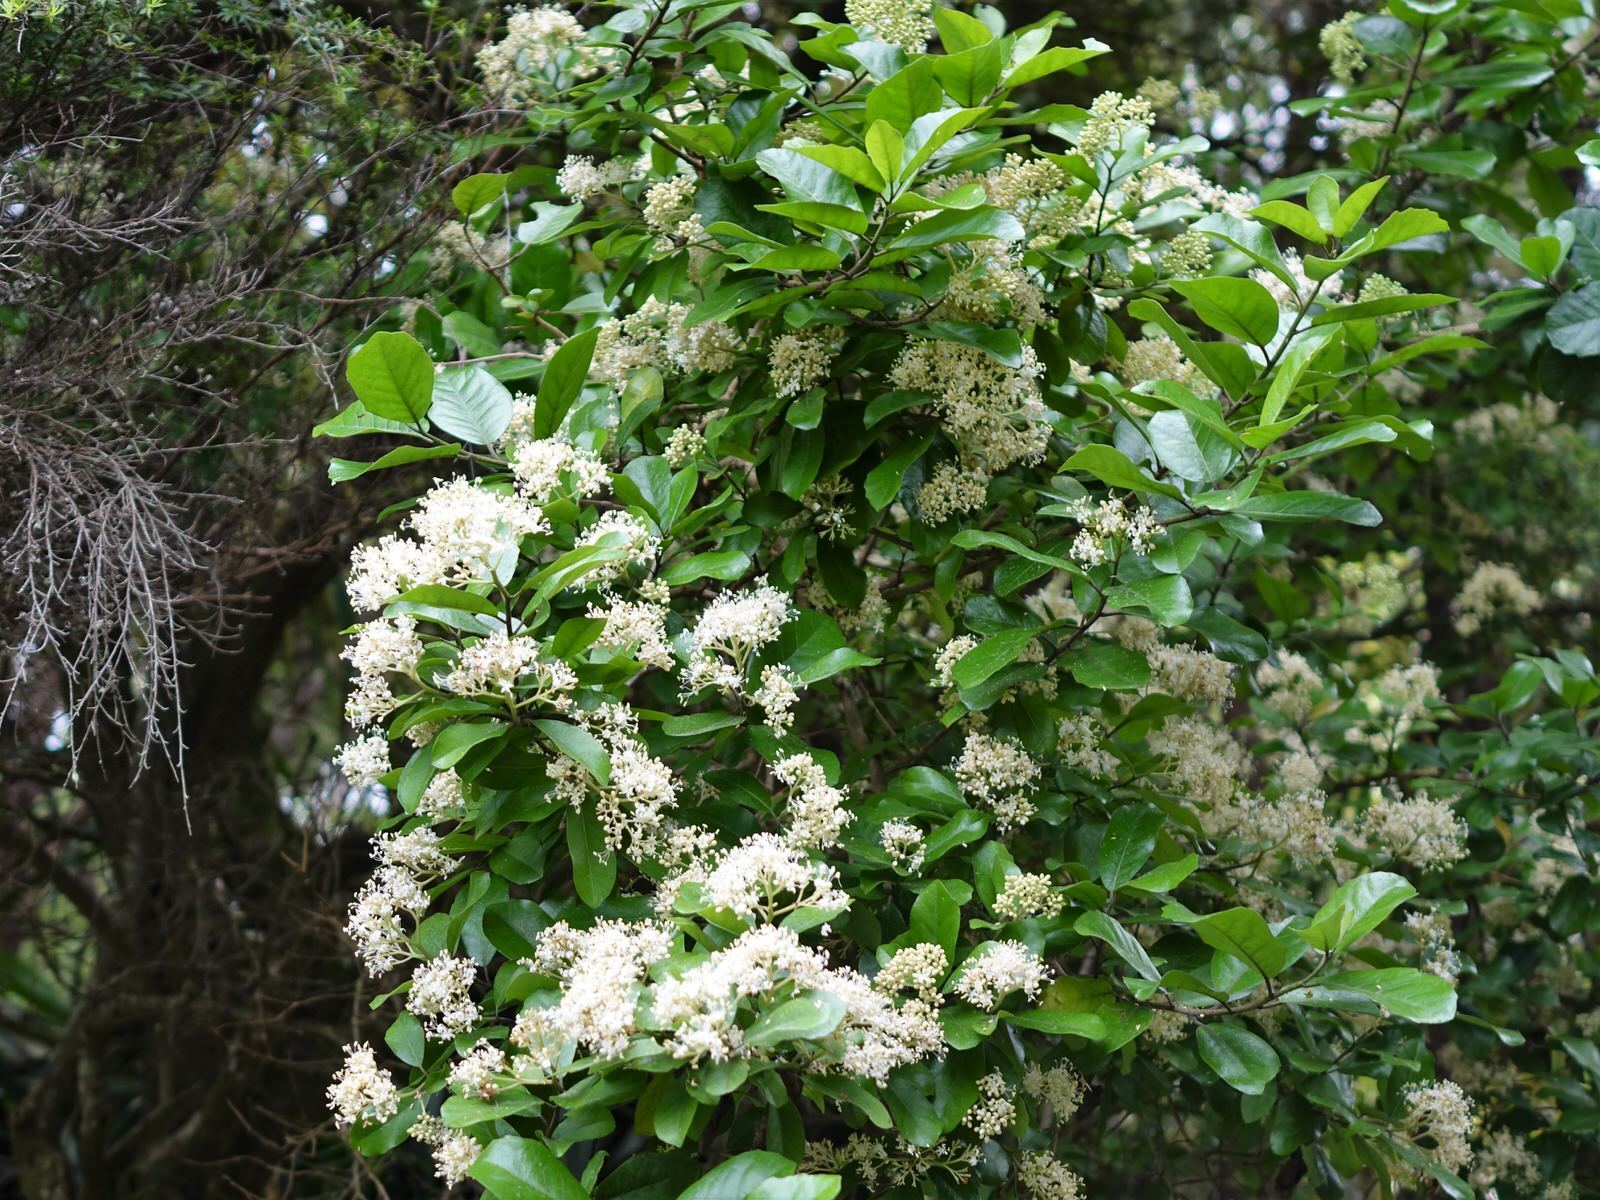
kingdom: Plantae
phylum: Tracheophyta
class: Magnoliopsida
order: Apiales
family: Pennantiaceae
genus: Pennantia
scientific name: Pennantia corymbosa
